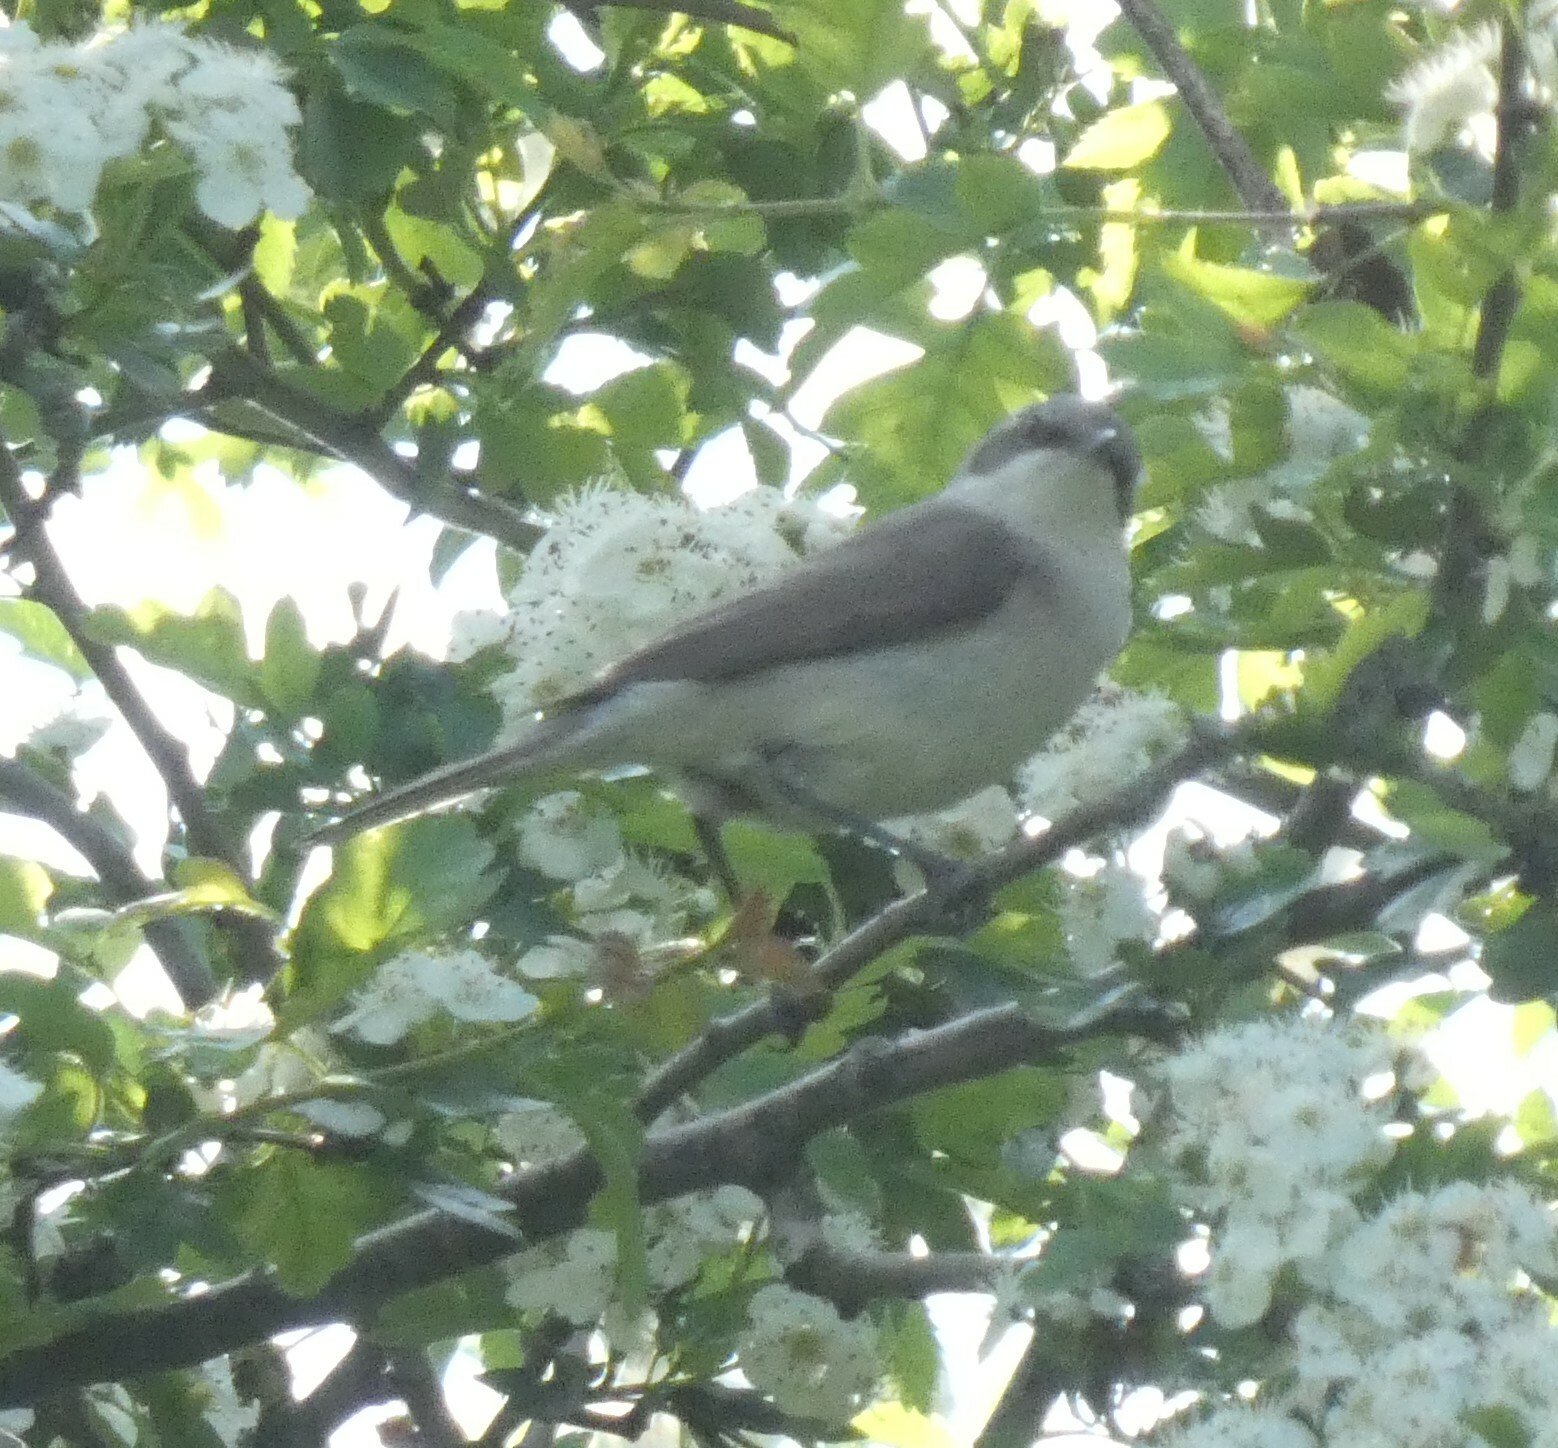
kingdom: Animalia
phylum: Chordata
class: Aves
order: Passeriformes
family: Sylviidae
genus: Sylvia
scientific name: Sylvia curruca
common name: Lesser whitethroat
